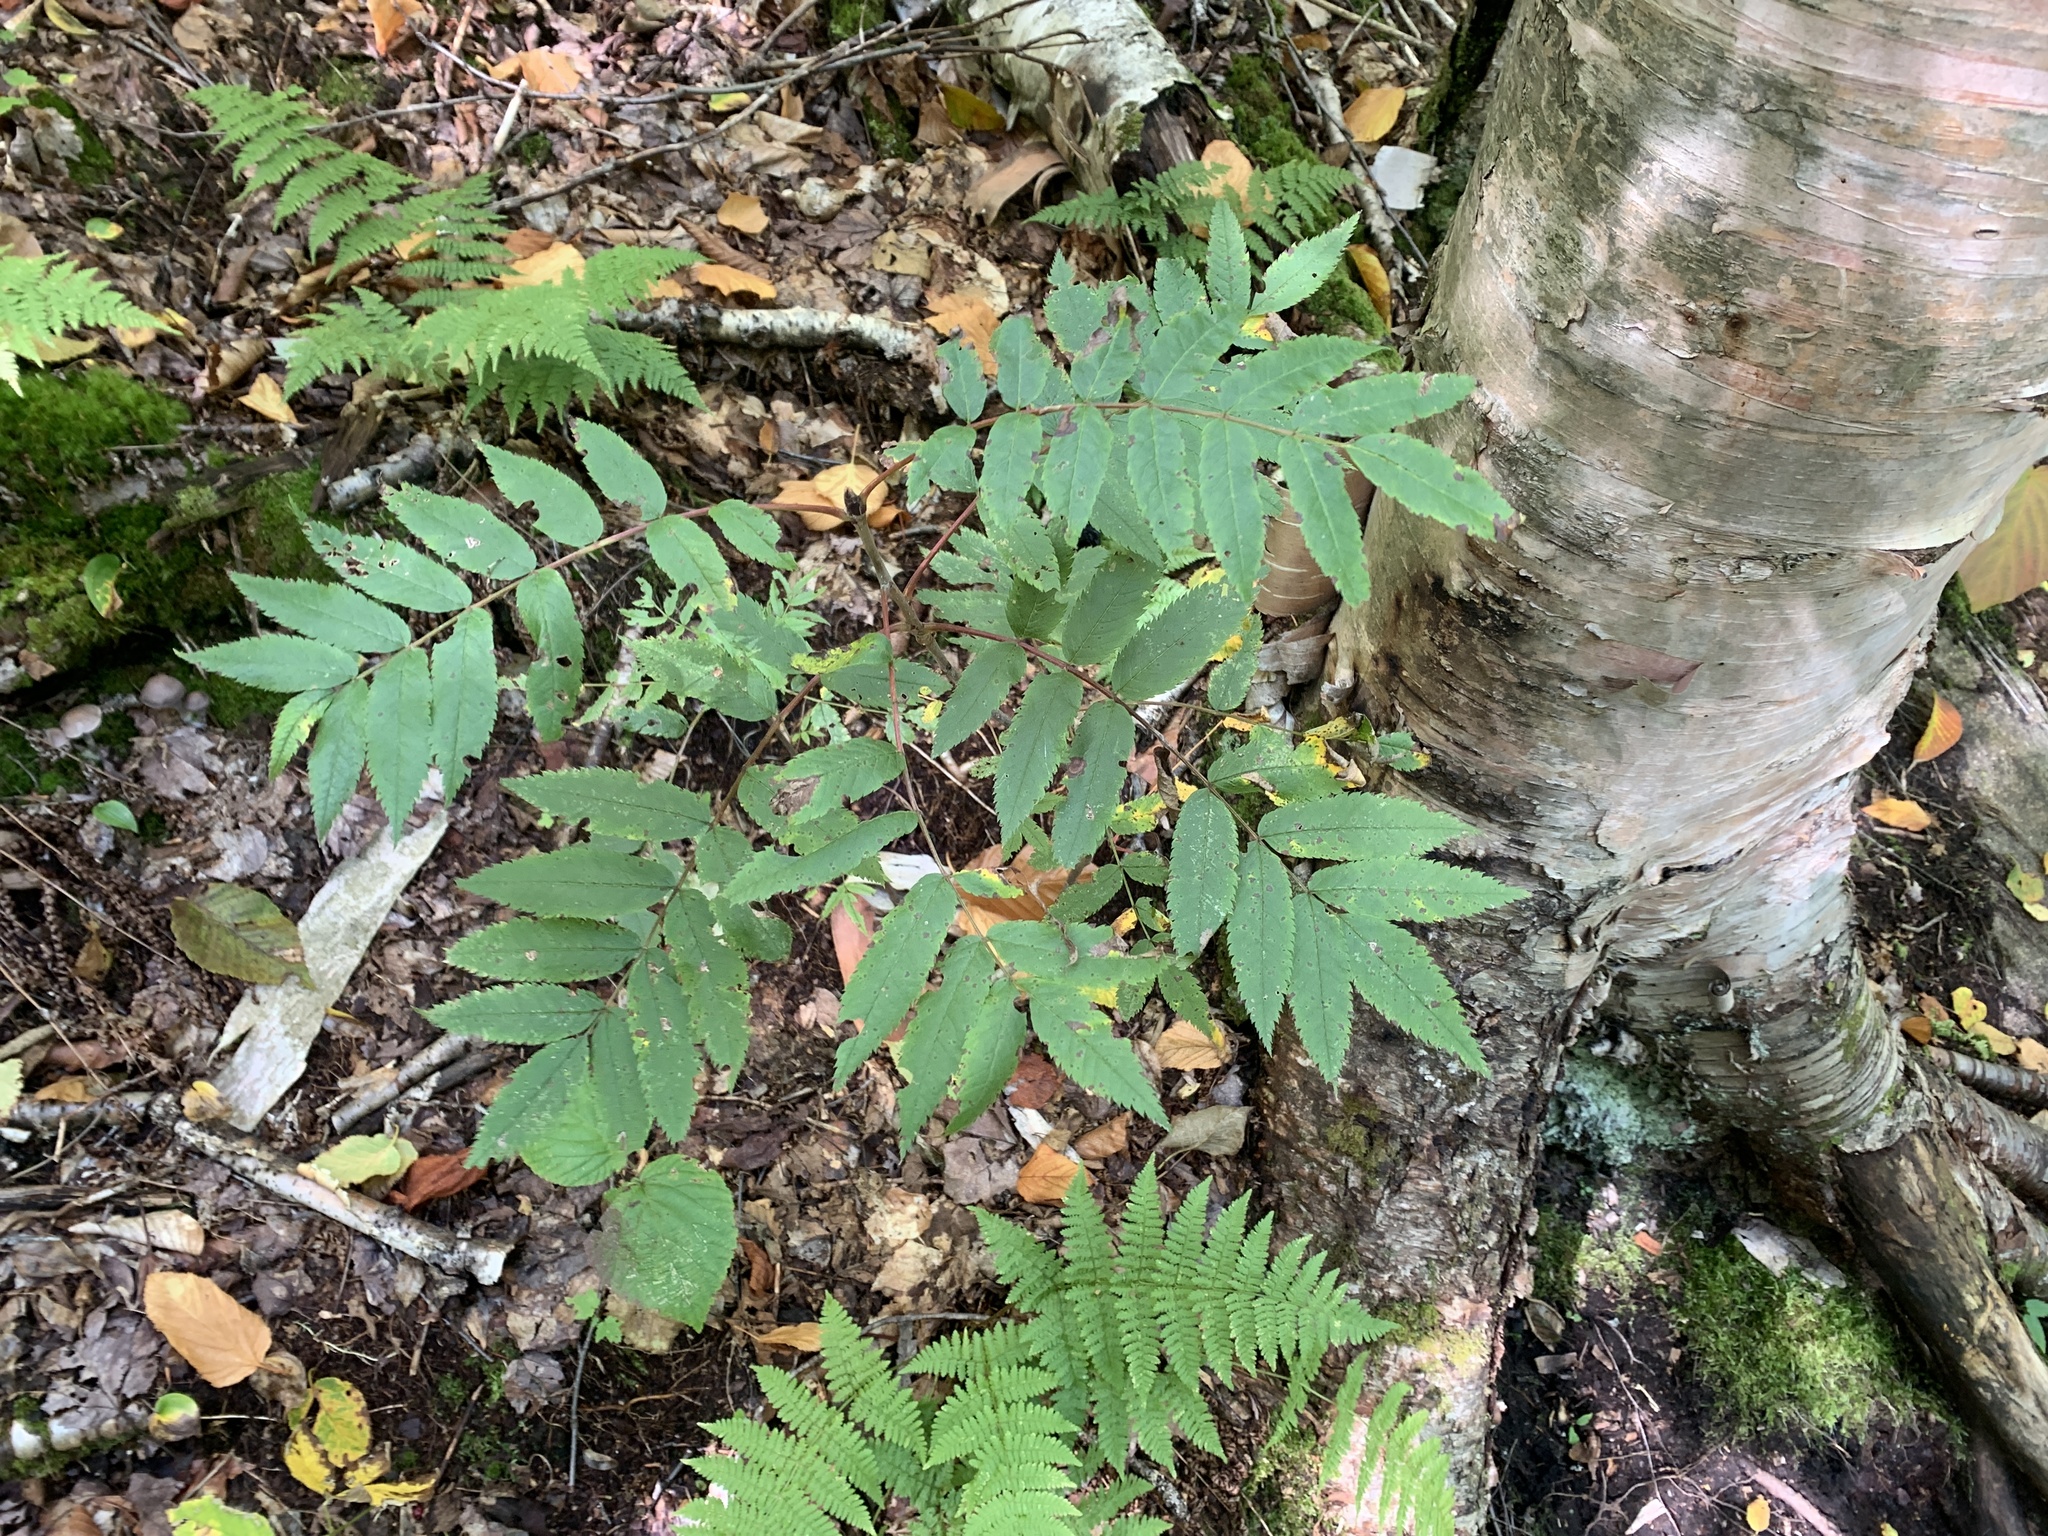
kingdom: Plantae
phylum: Tracheophyta
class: Magnoliopsida
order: Rosales
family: Rosaceae
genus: Sorbus
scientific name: Sorbus americana
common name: American mountain-ash
